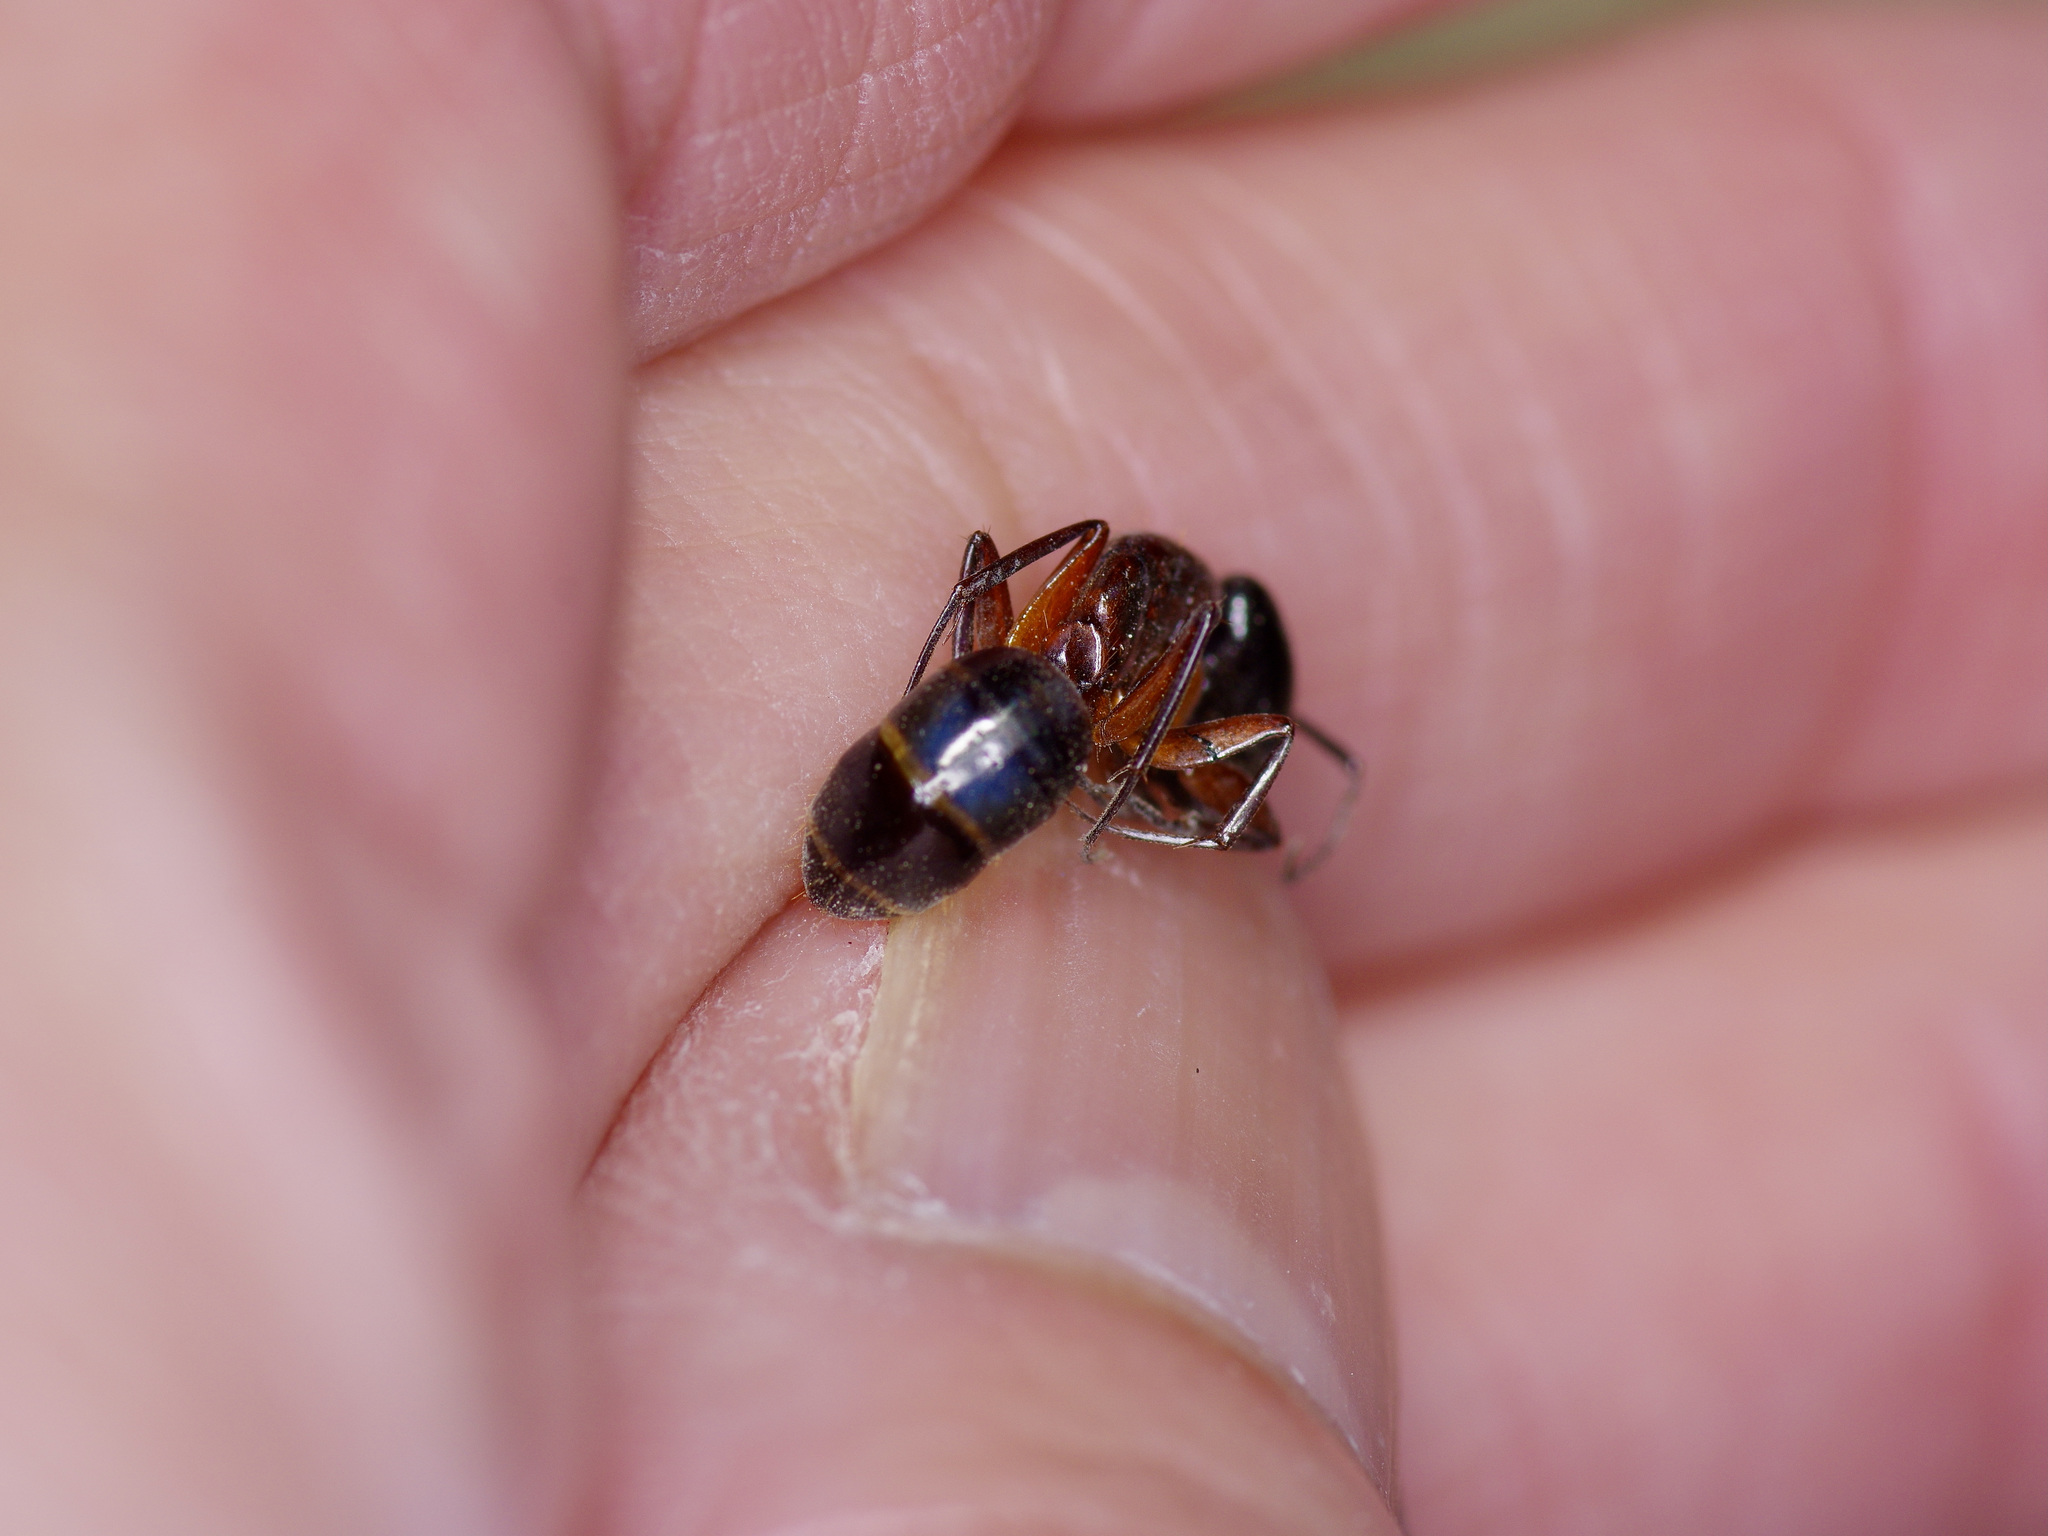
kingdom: Animalia
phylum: Arthropoda
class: Insecta
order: Hymenoptera
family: Formicidae
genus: Camponotus
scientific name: Camponotus texanus
